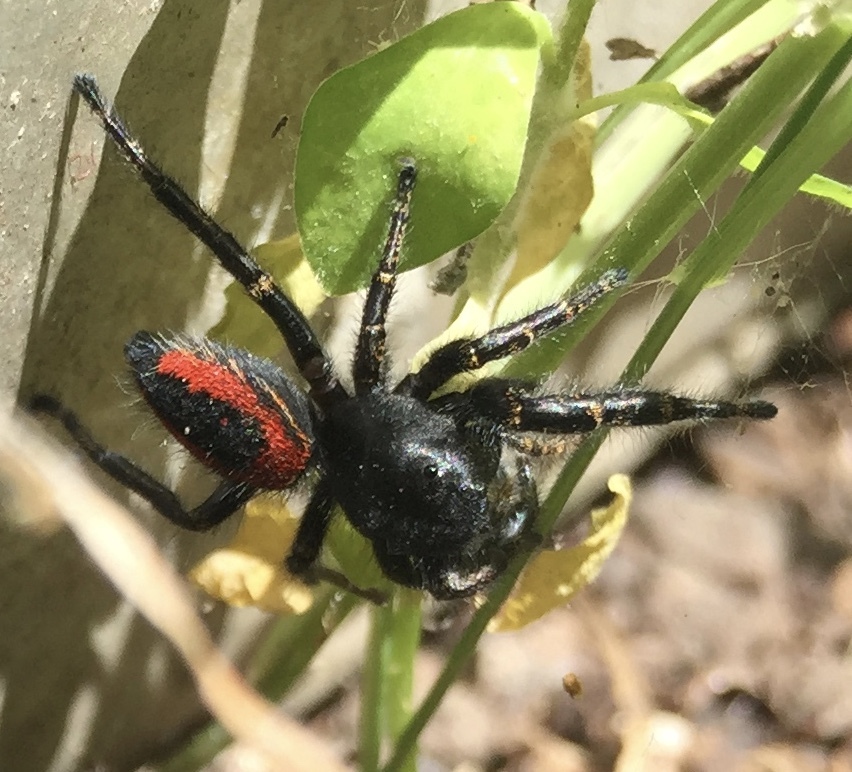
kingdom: Animalia
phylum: Arthropoda
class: Arachnida
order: Araneae
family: Salticidae
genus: Phidippus
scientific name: Phidippus johnsoni
